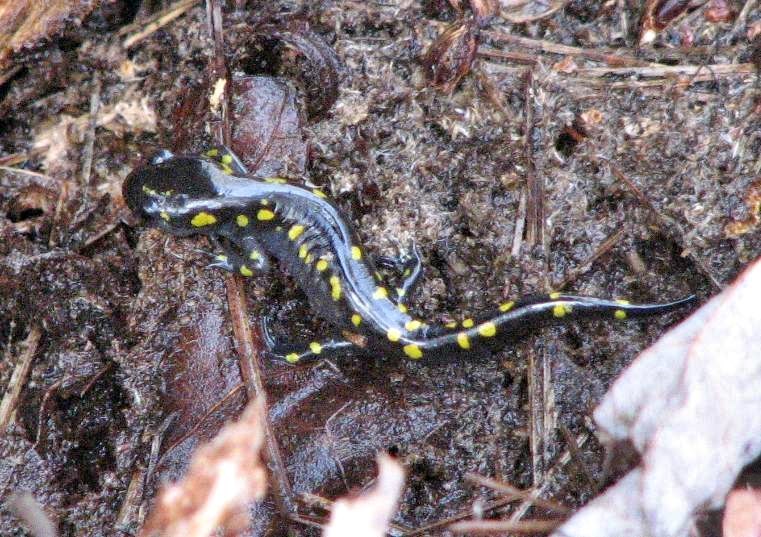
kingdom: Animalia
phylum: Chordata
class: Amphibia
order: Caudata
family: Ambystomatidae
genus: Ambystoma
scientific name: Ambystoma maculatum
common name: Spotted salamander
